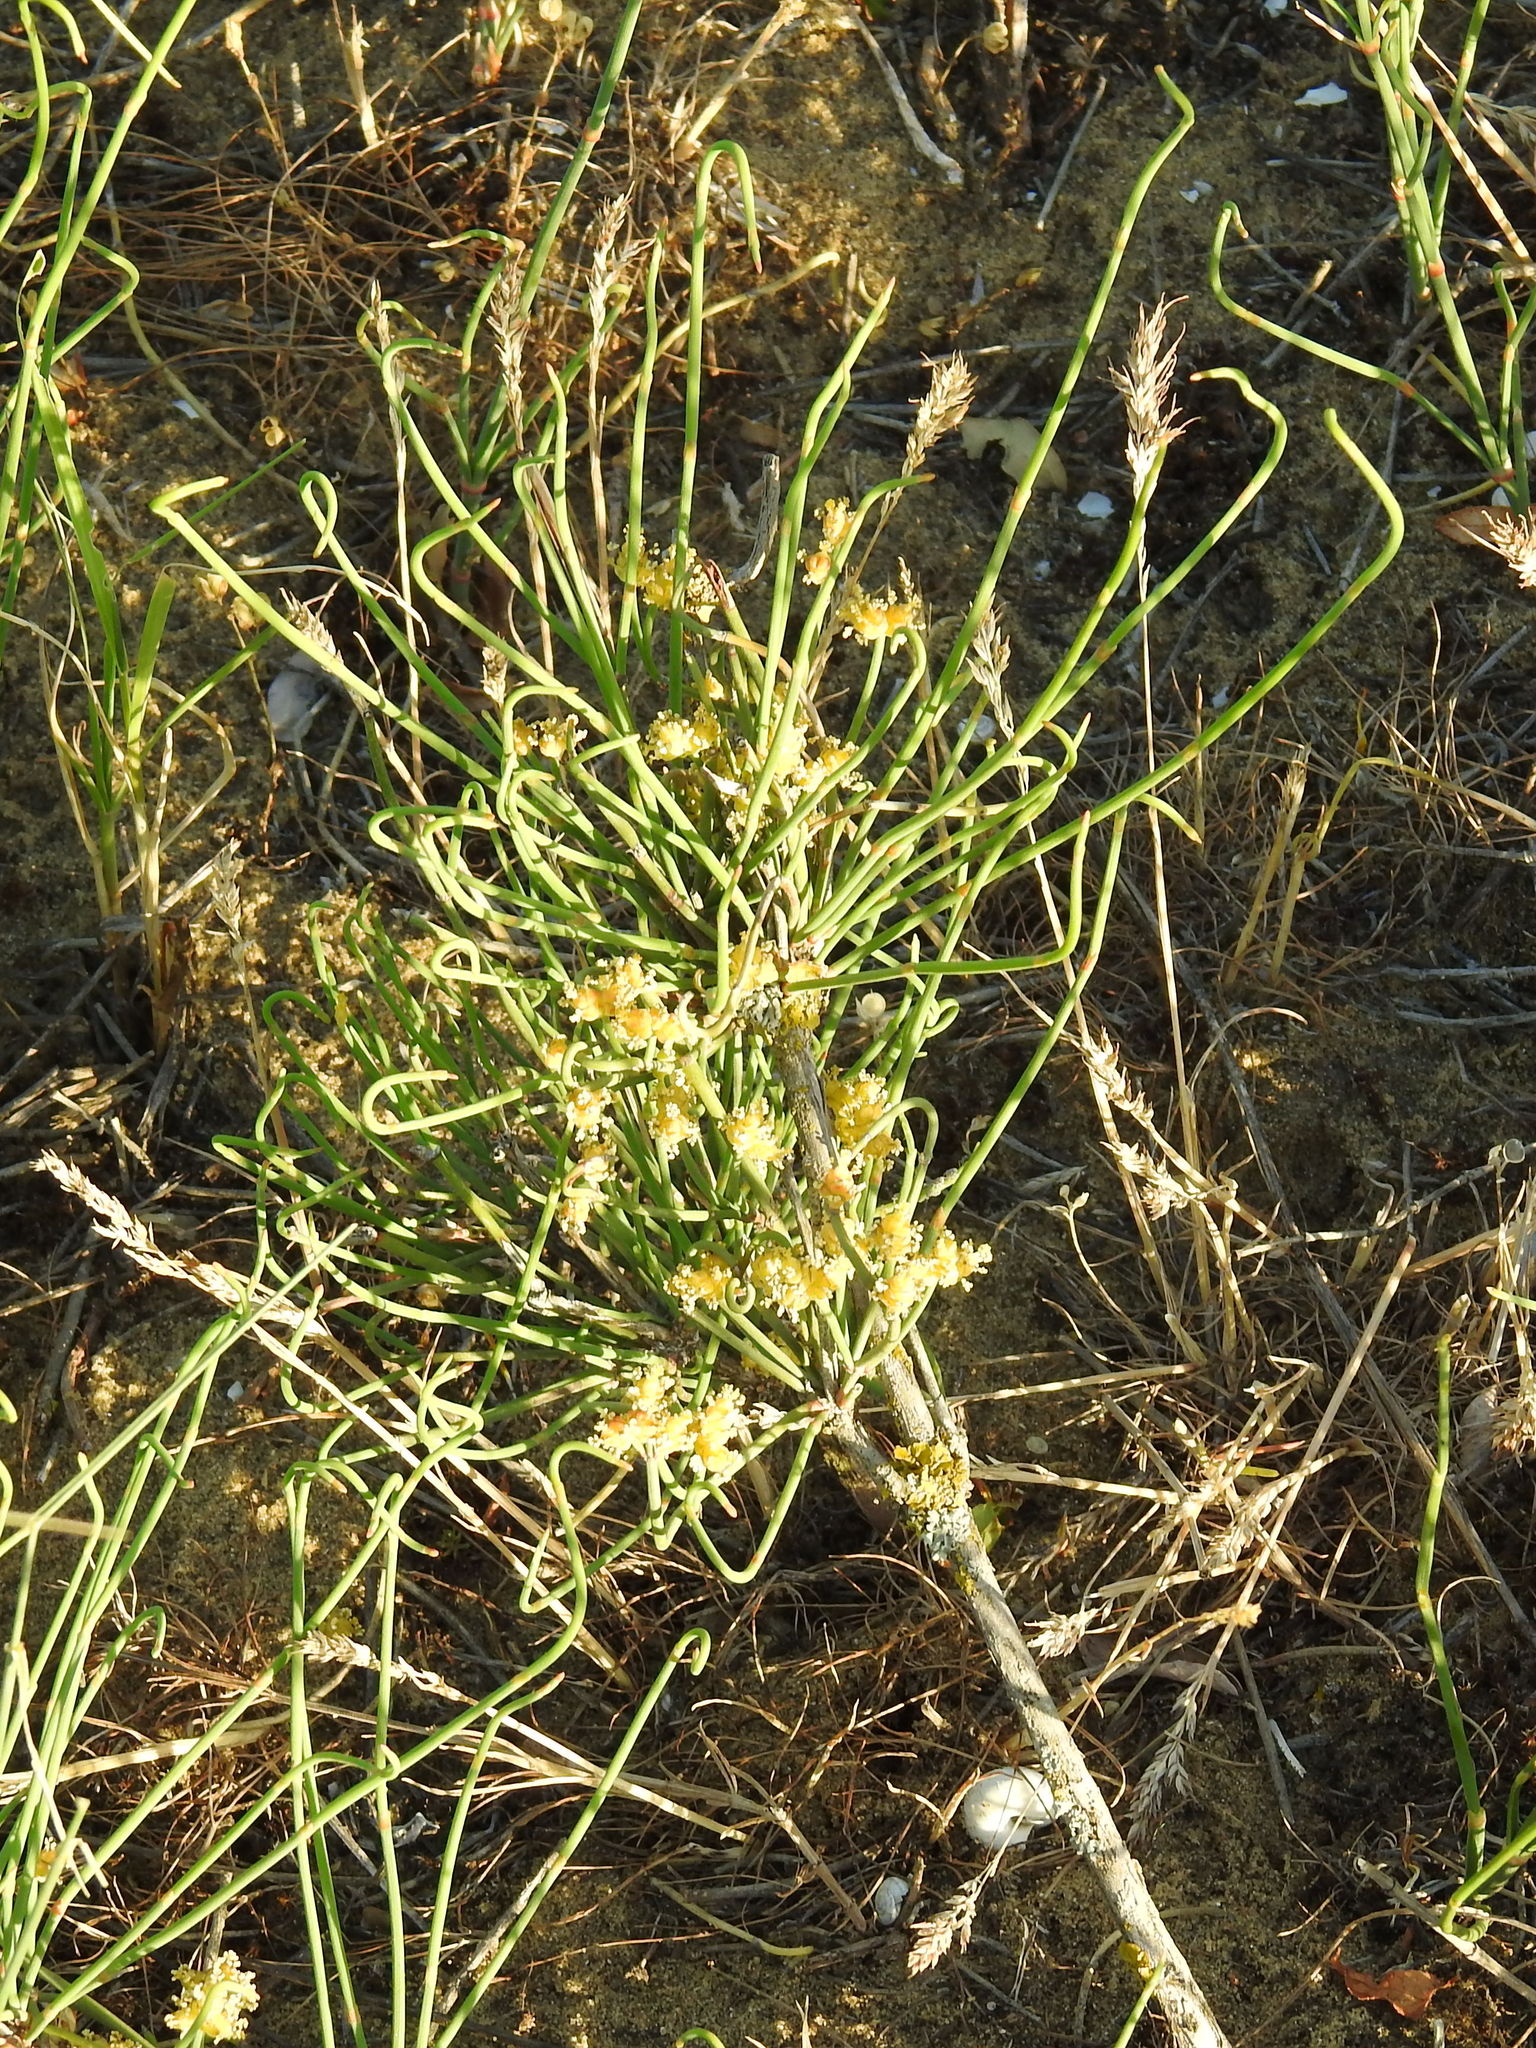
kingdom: Plantae
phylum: Tracheophyta
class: Gnetopsida
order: Ephedrales
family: Ephedraceae
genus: Ephedra
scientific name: Ephedra distachya
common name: Sea grape
